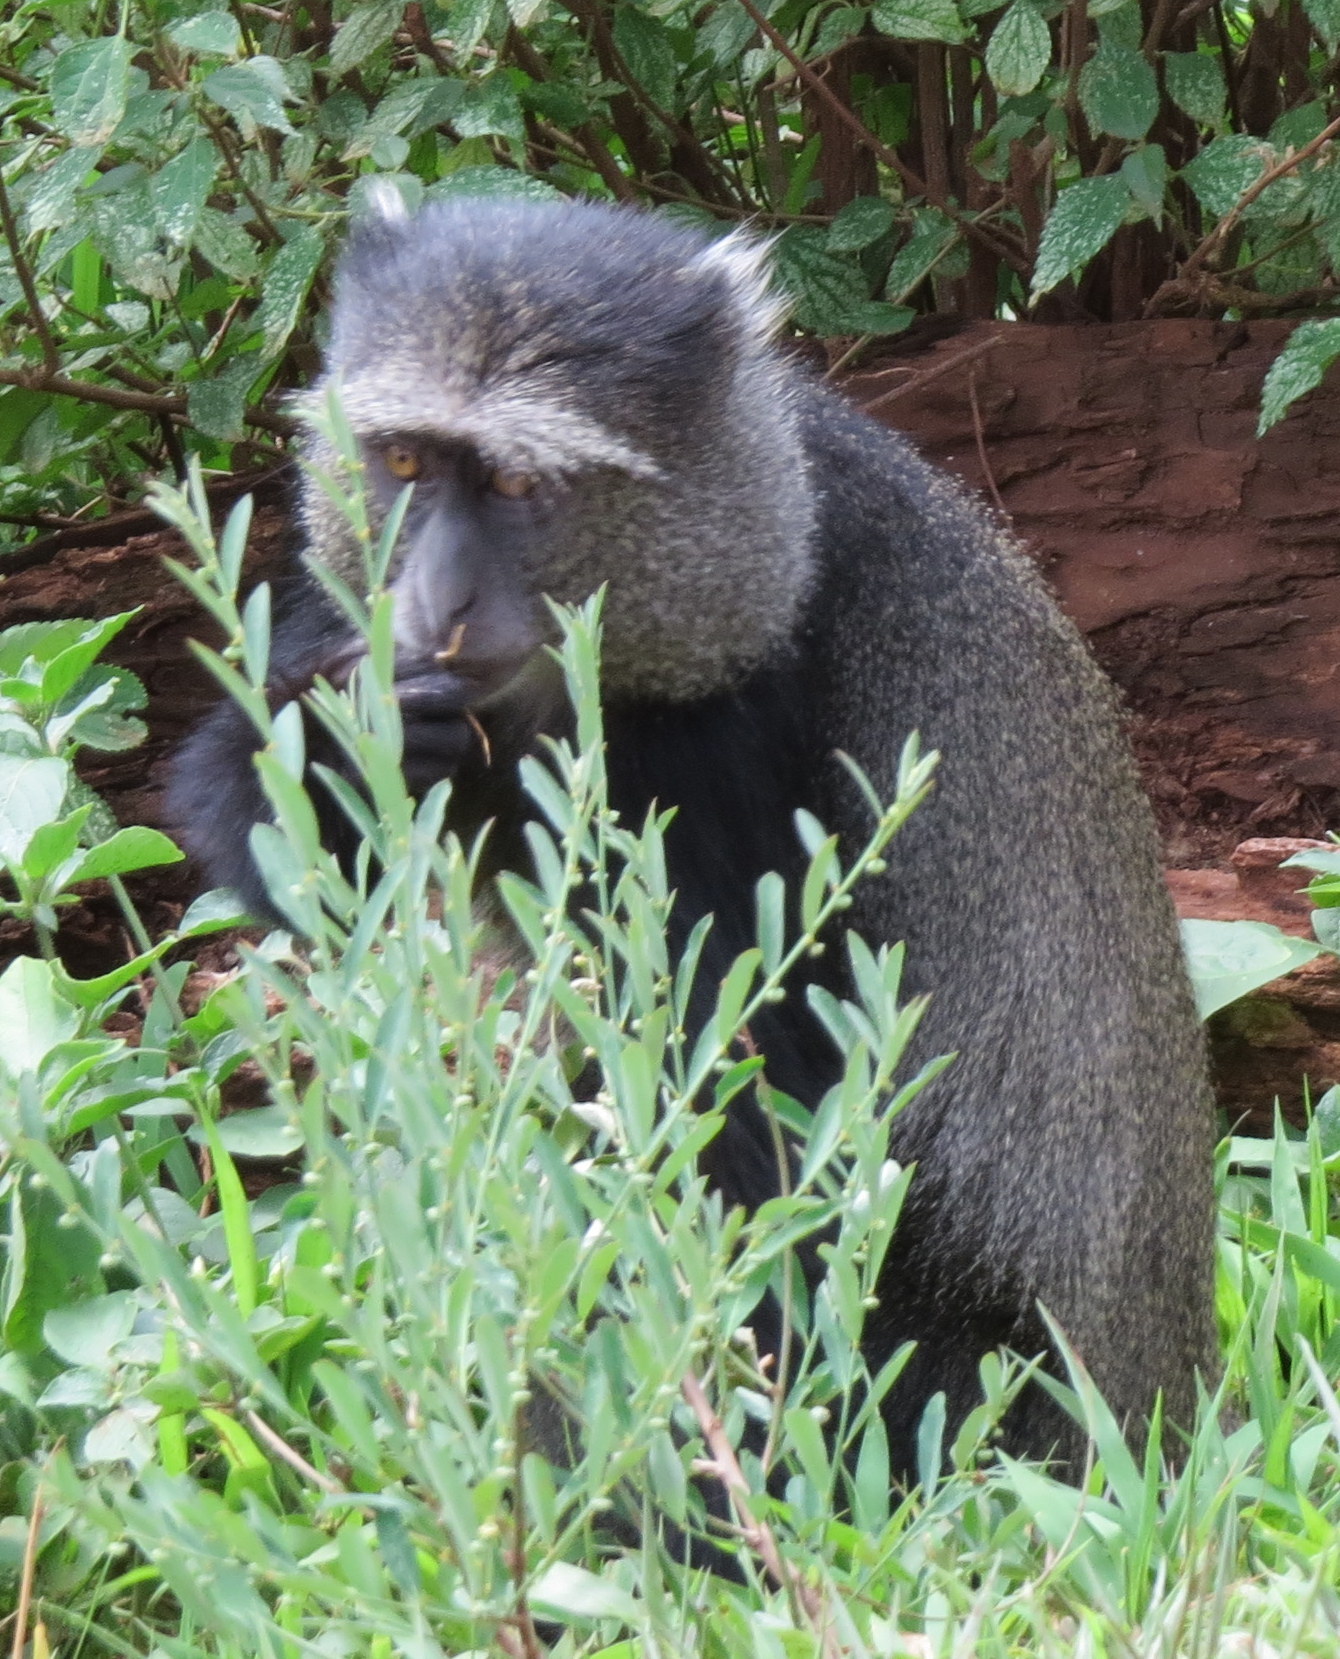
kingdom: Animalia
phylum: Chordata
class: Mammalia
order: Primates
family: Cercopithecidae
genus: Cercopithecus
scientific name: Cercopithecus mitis
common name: Blue monkey
